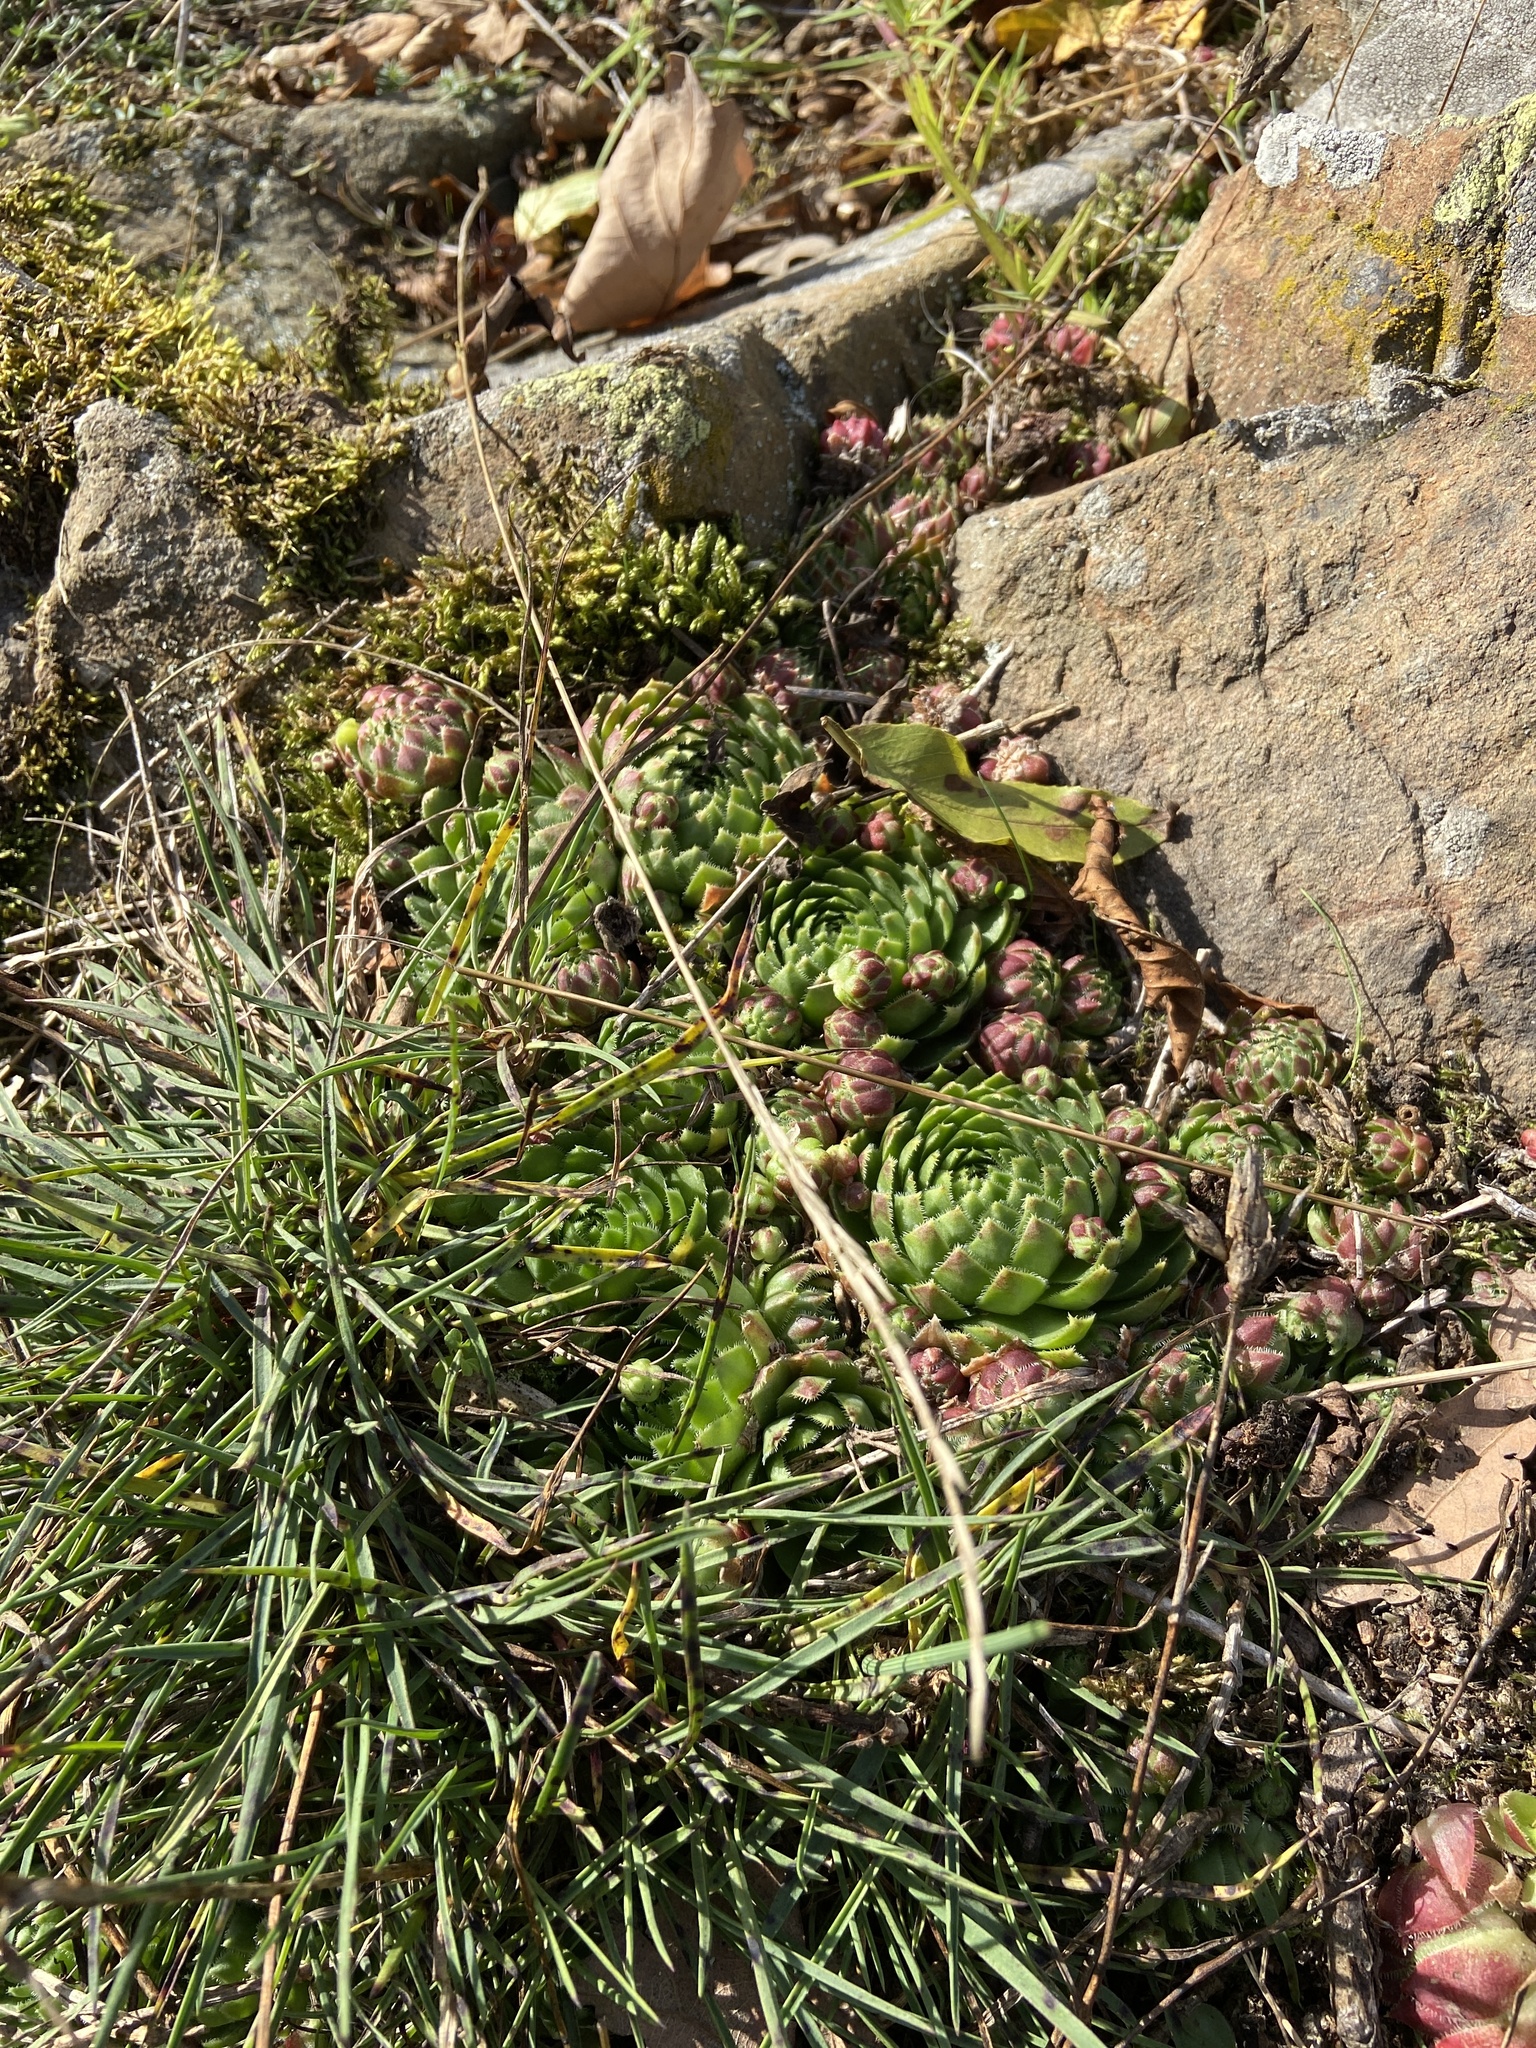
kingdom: Plantae
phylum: Tracheophyta
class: Magnoliopsida
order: Saxifragales
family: Crassulaceae
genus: Sempervivum
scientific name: Sempervivum globiferum
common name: Rolling hen-and-chicks
